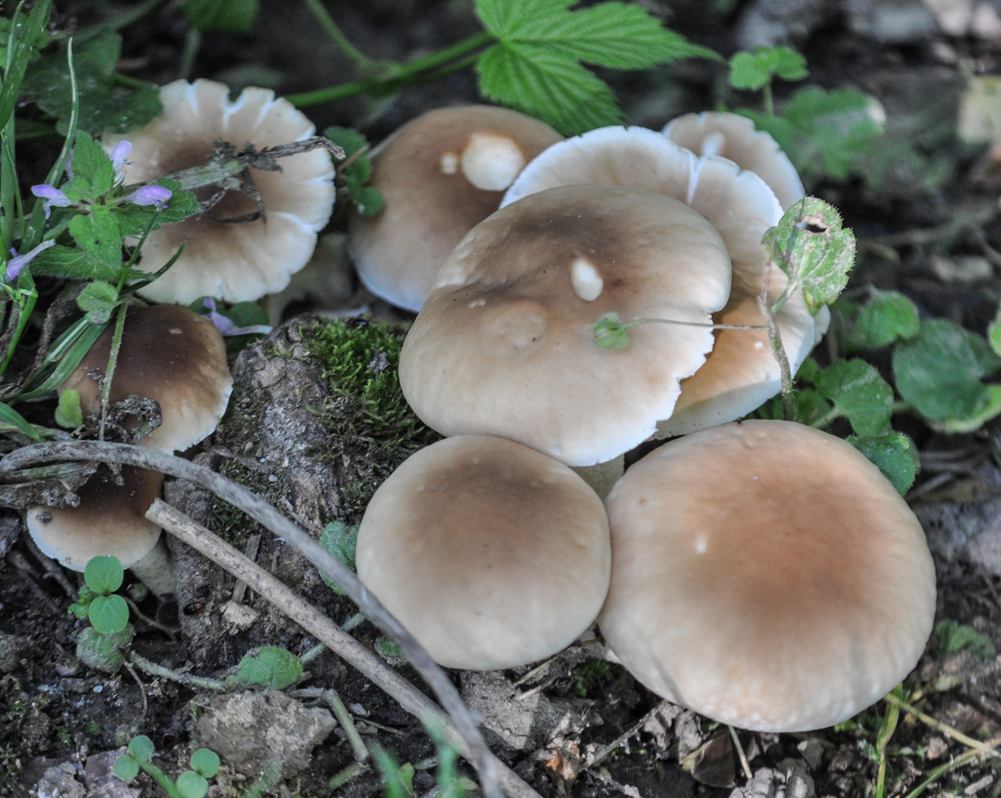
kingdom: Fungi
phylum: Basidiomycota
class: Agaricomycetes
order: Agaricales
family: Tubariaceae
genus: Cyclocybe
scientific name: Cyclocybe cylindracea
